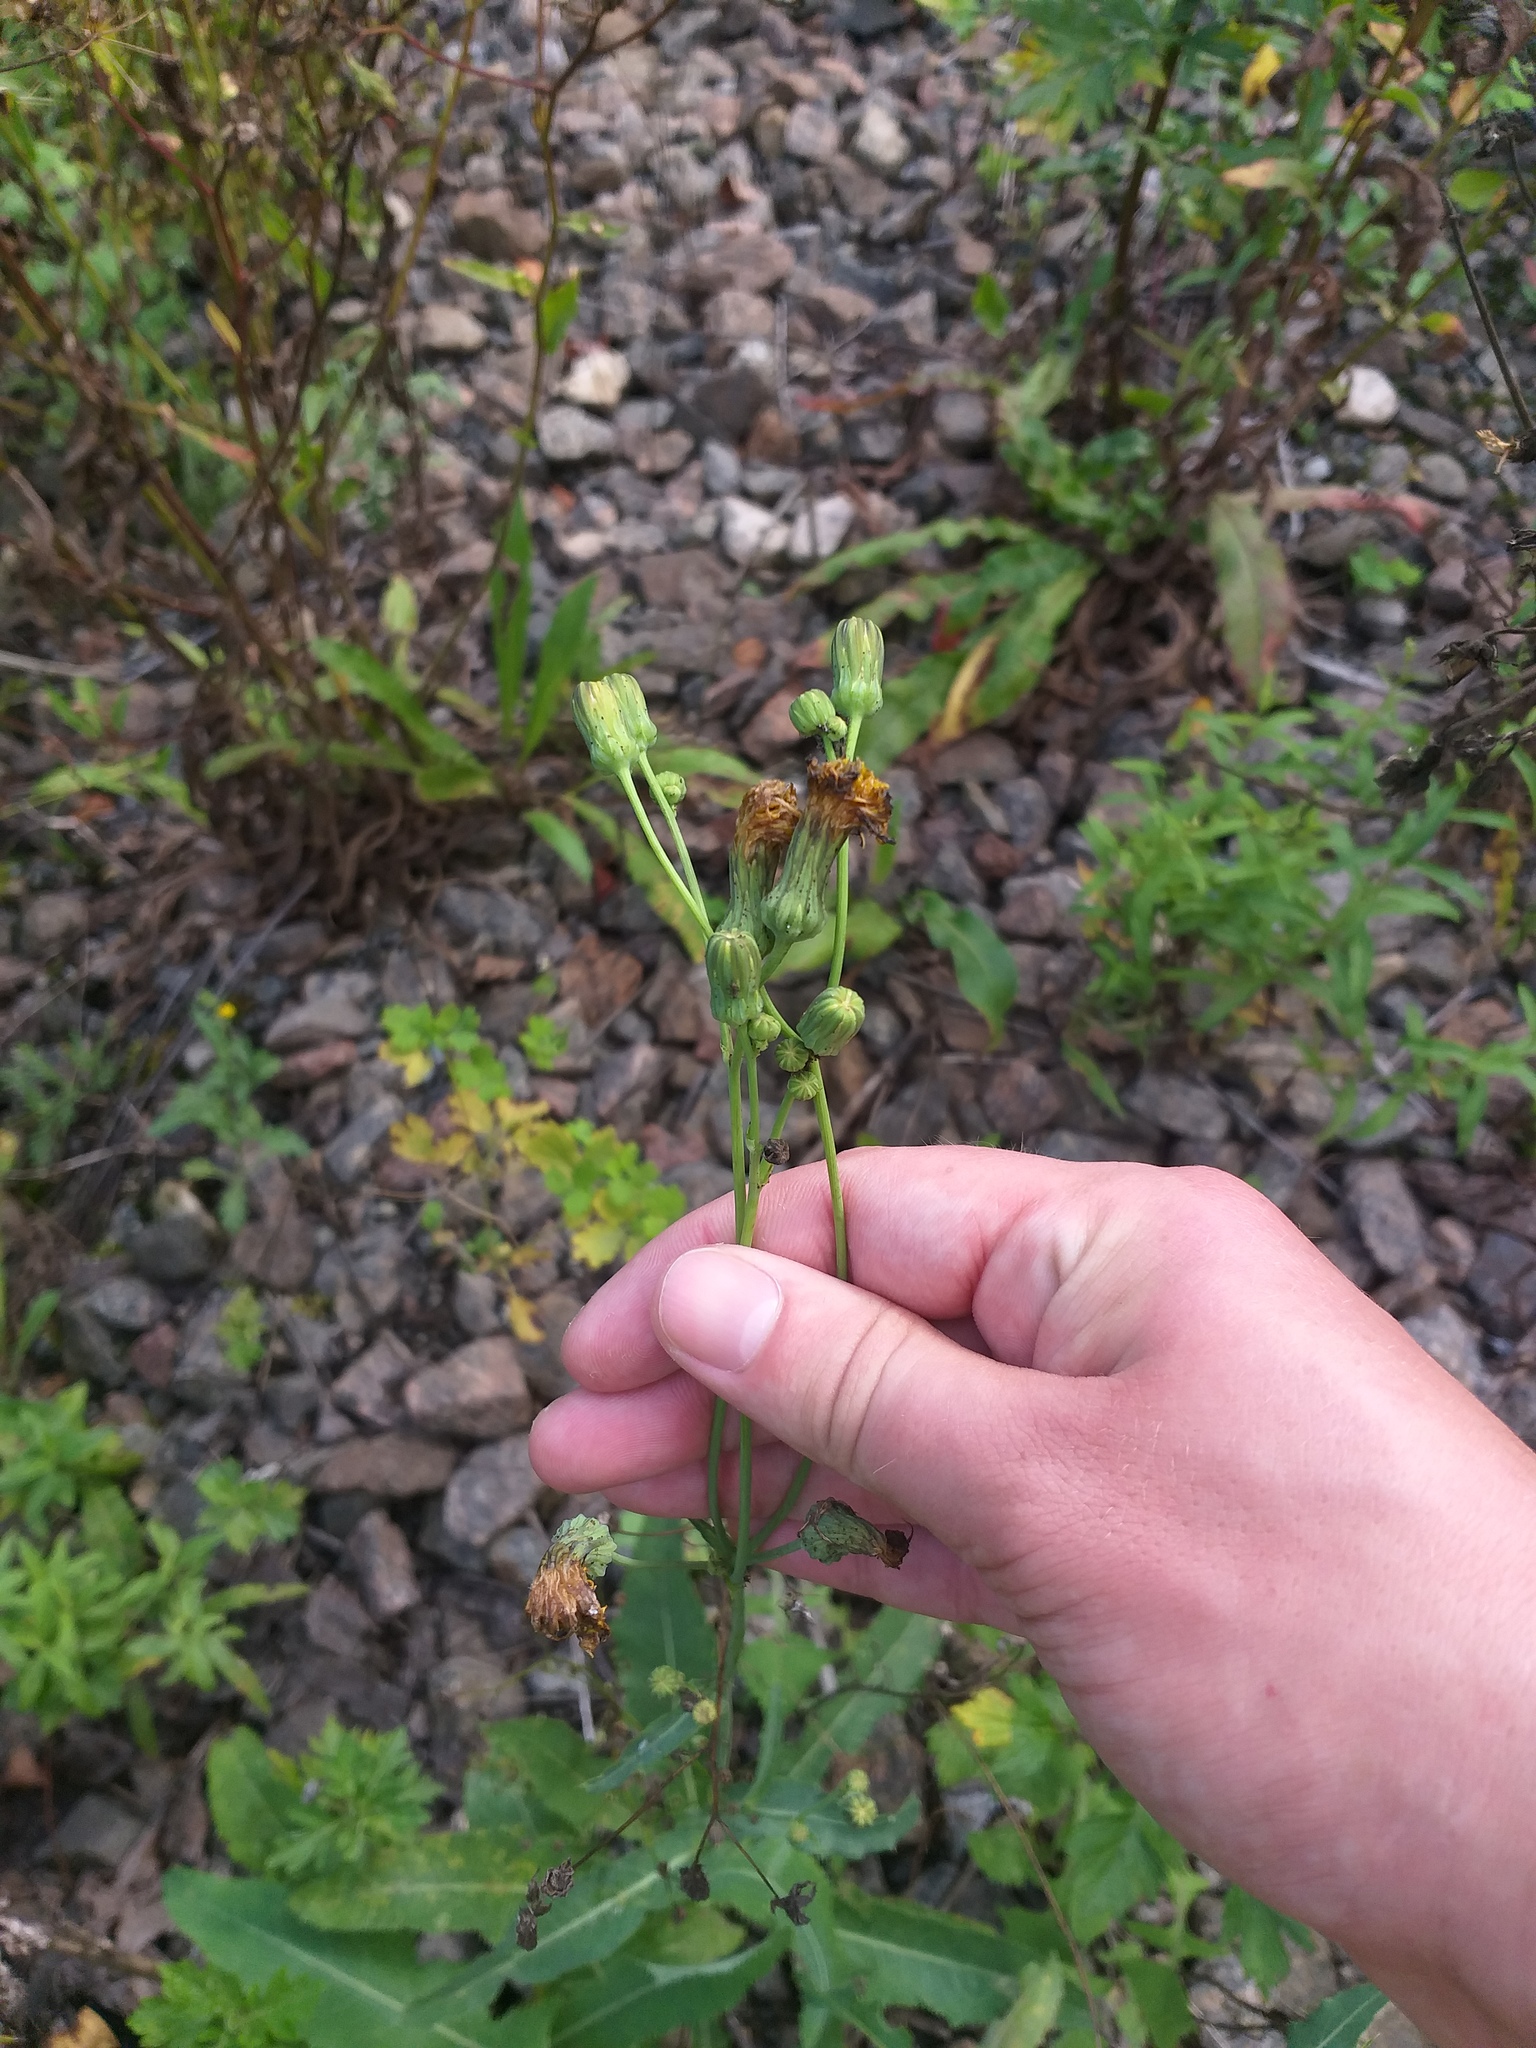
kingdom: Plantae
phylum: Tracheophyta
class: Magnoliopsida
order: Asterales
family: Asteraceae
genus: Sonchus
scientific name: Sonchus arvensis
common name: Perennial sow-thistle
